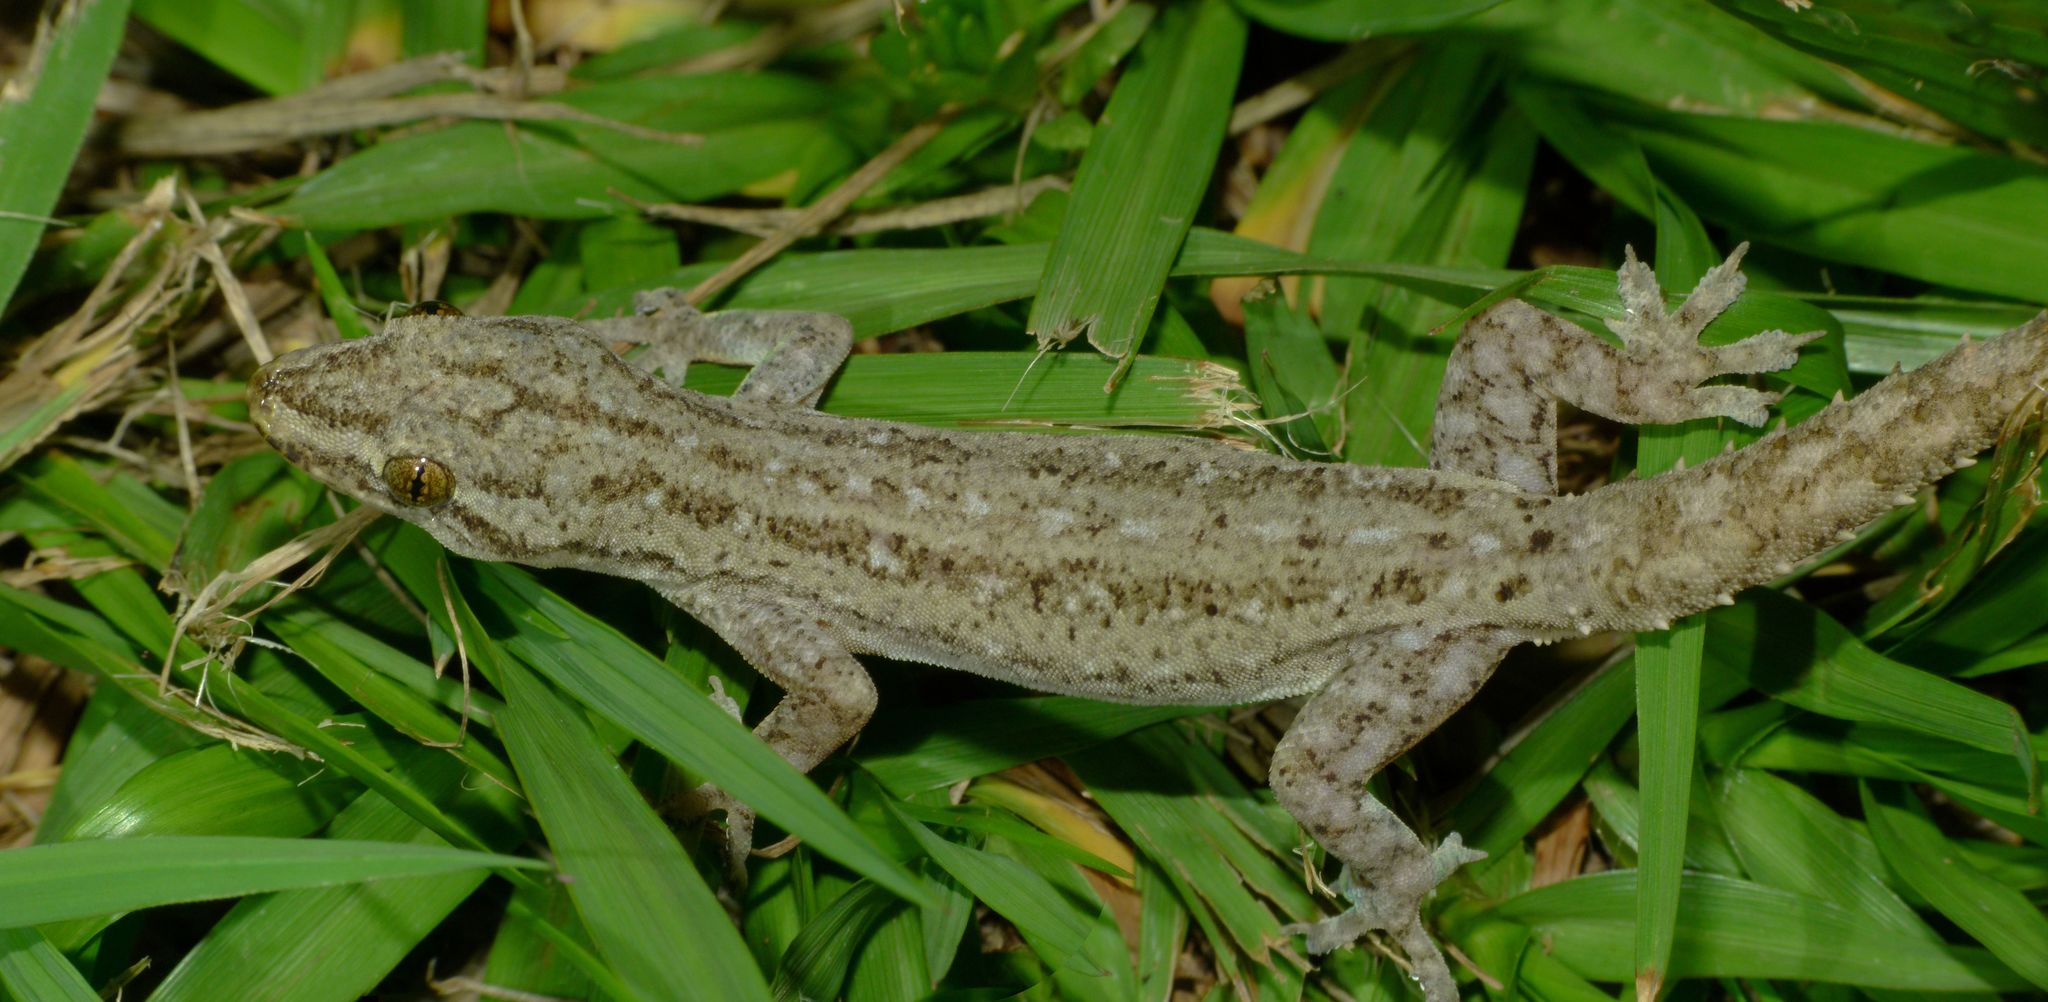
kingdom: Animalia
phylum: Chordata
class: Squamata
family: Gekkonidae
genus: Hemidactylus
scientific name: Hemidactylus frenatus
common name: Common house gecko
